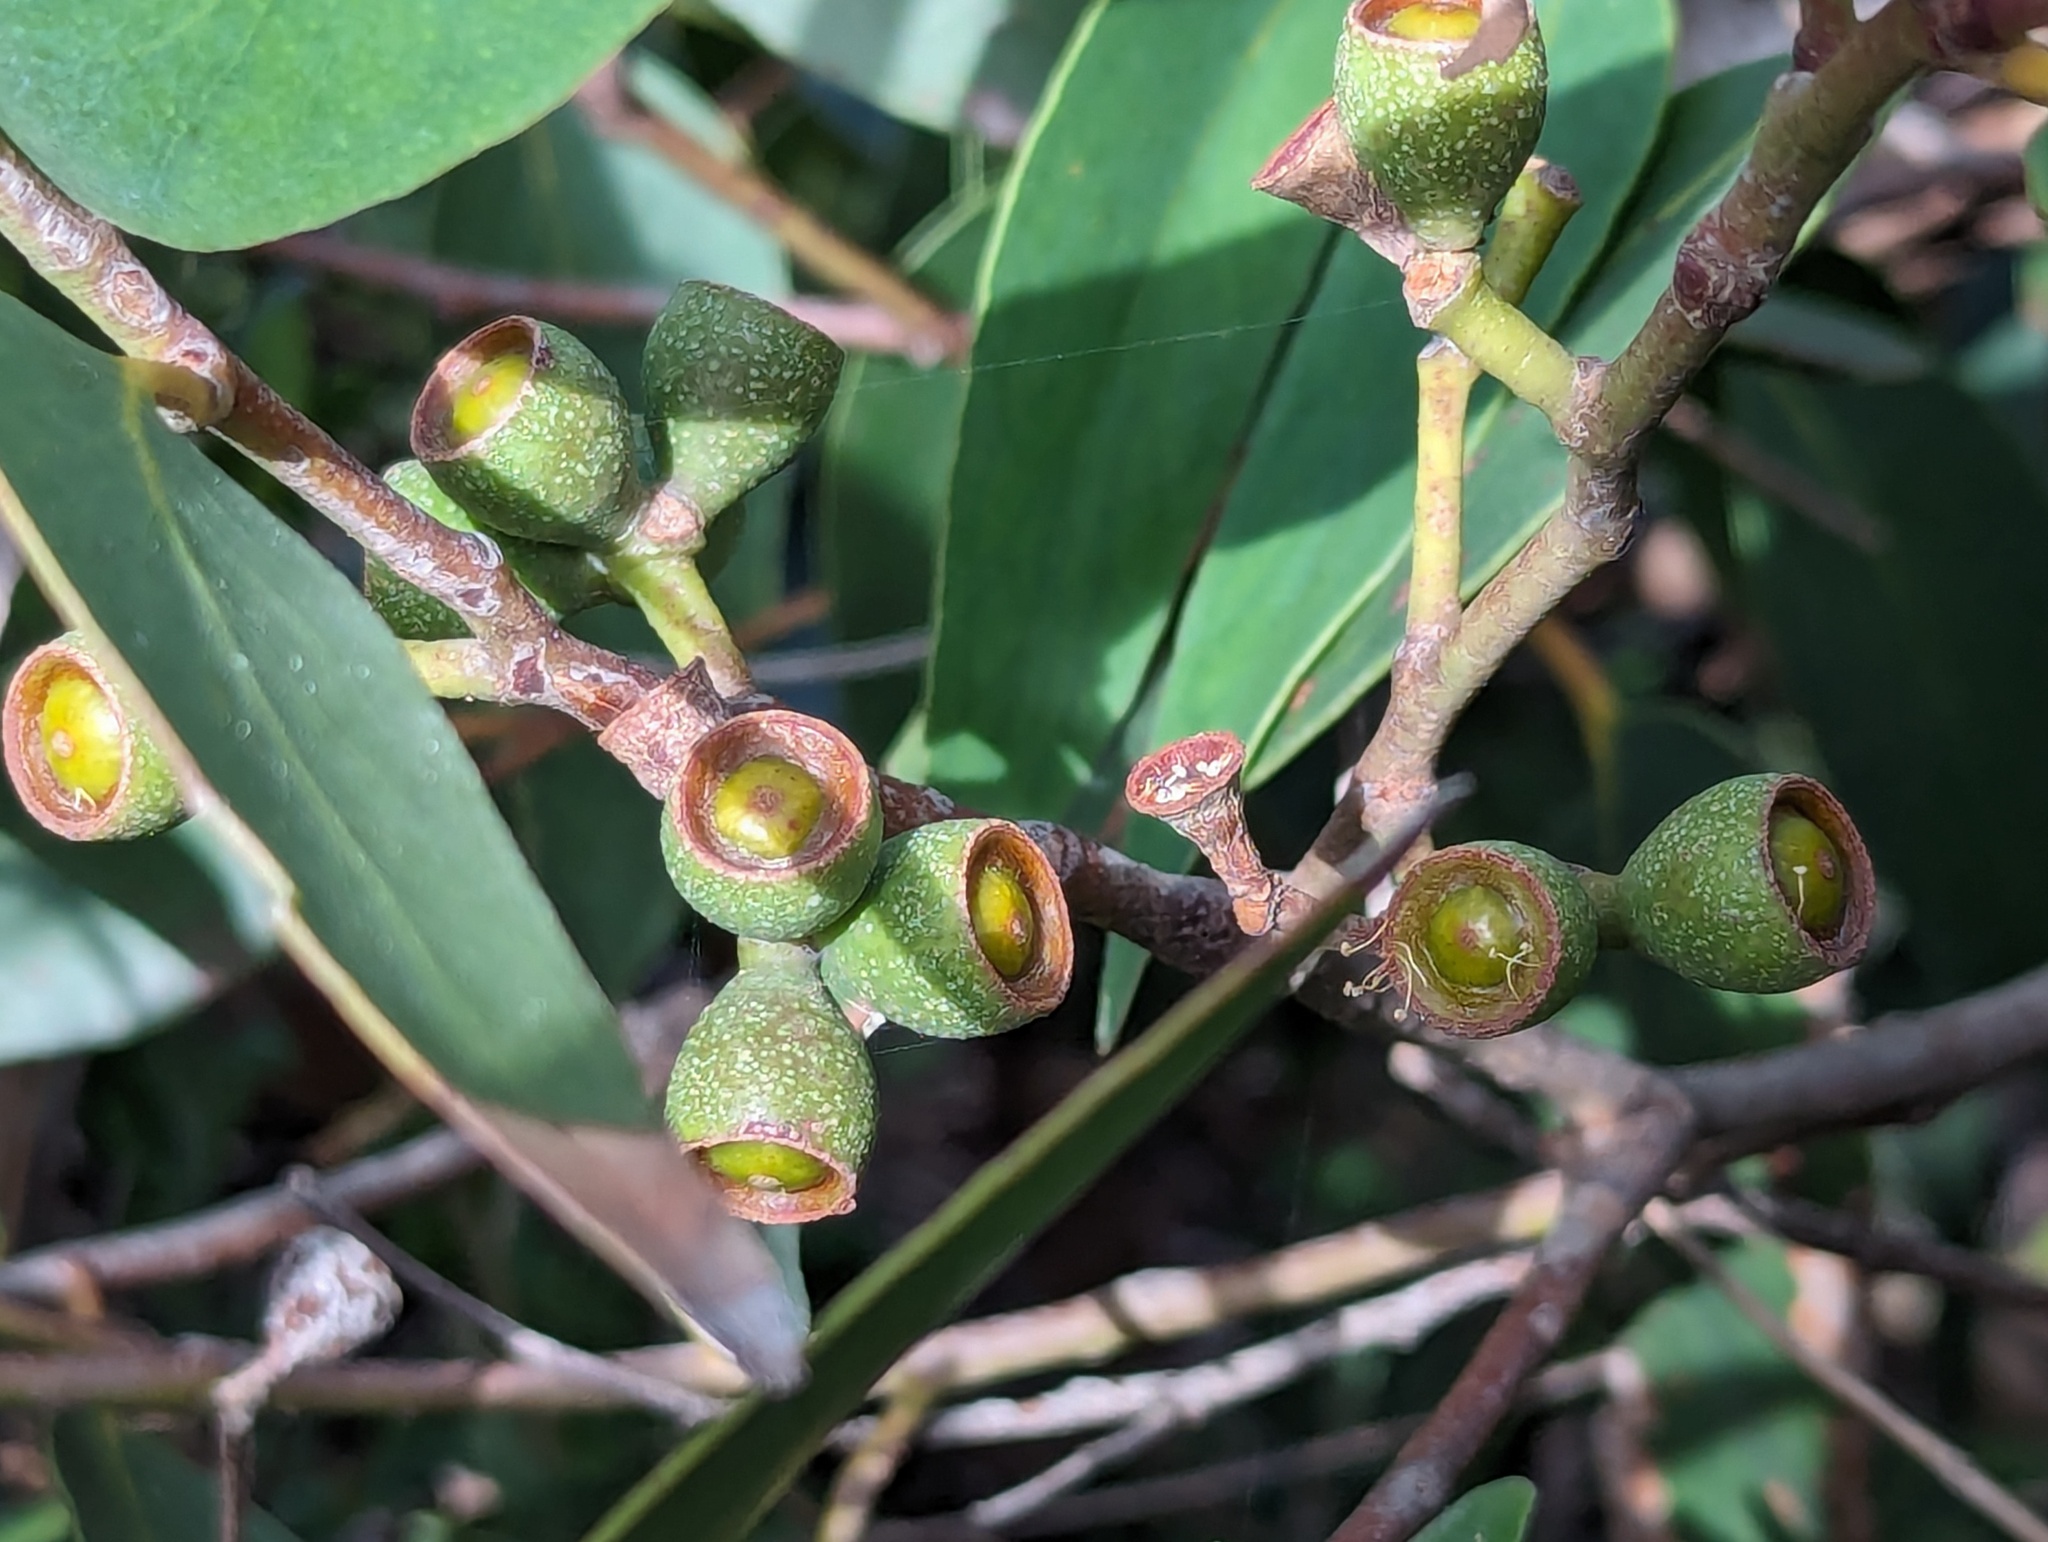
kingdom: Plantae
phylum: Tracheophyta
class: Magnoliopsida
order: Myrtales
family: Myrtaceae
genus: Eucalyptus
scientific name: Eucalyptus obliqua
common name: Messmate stringybark
